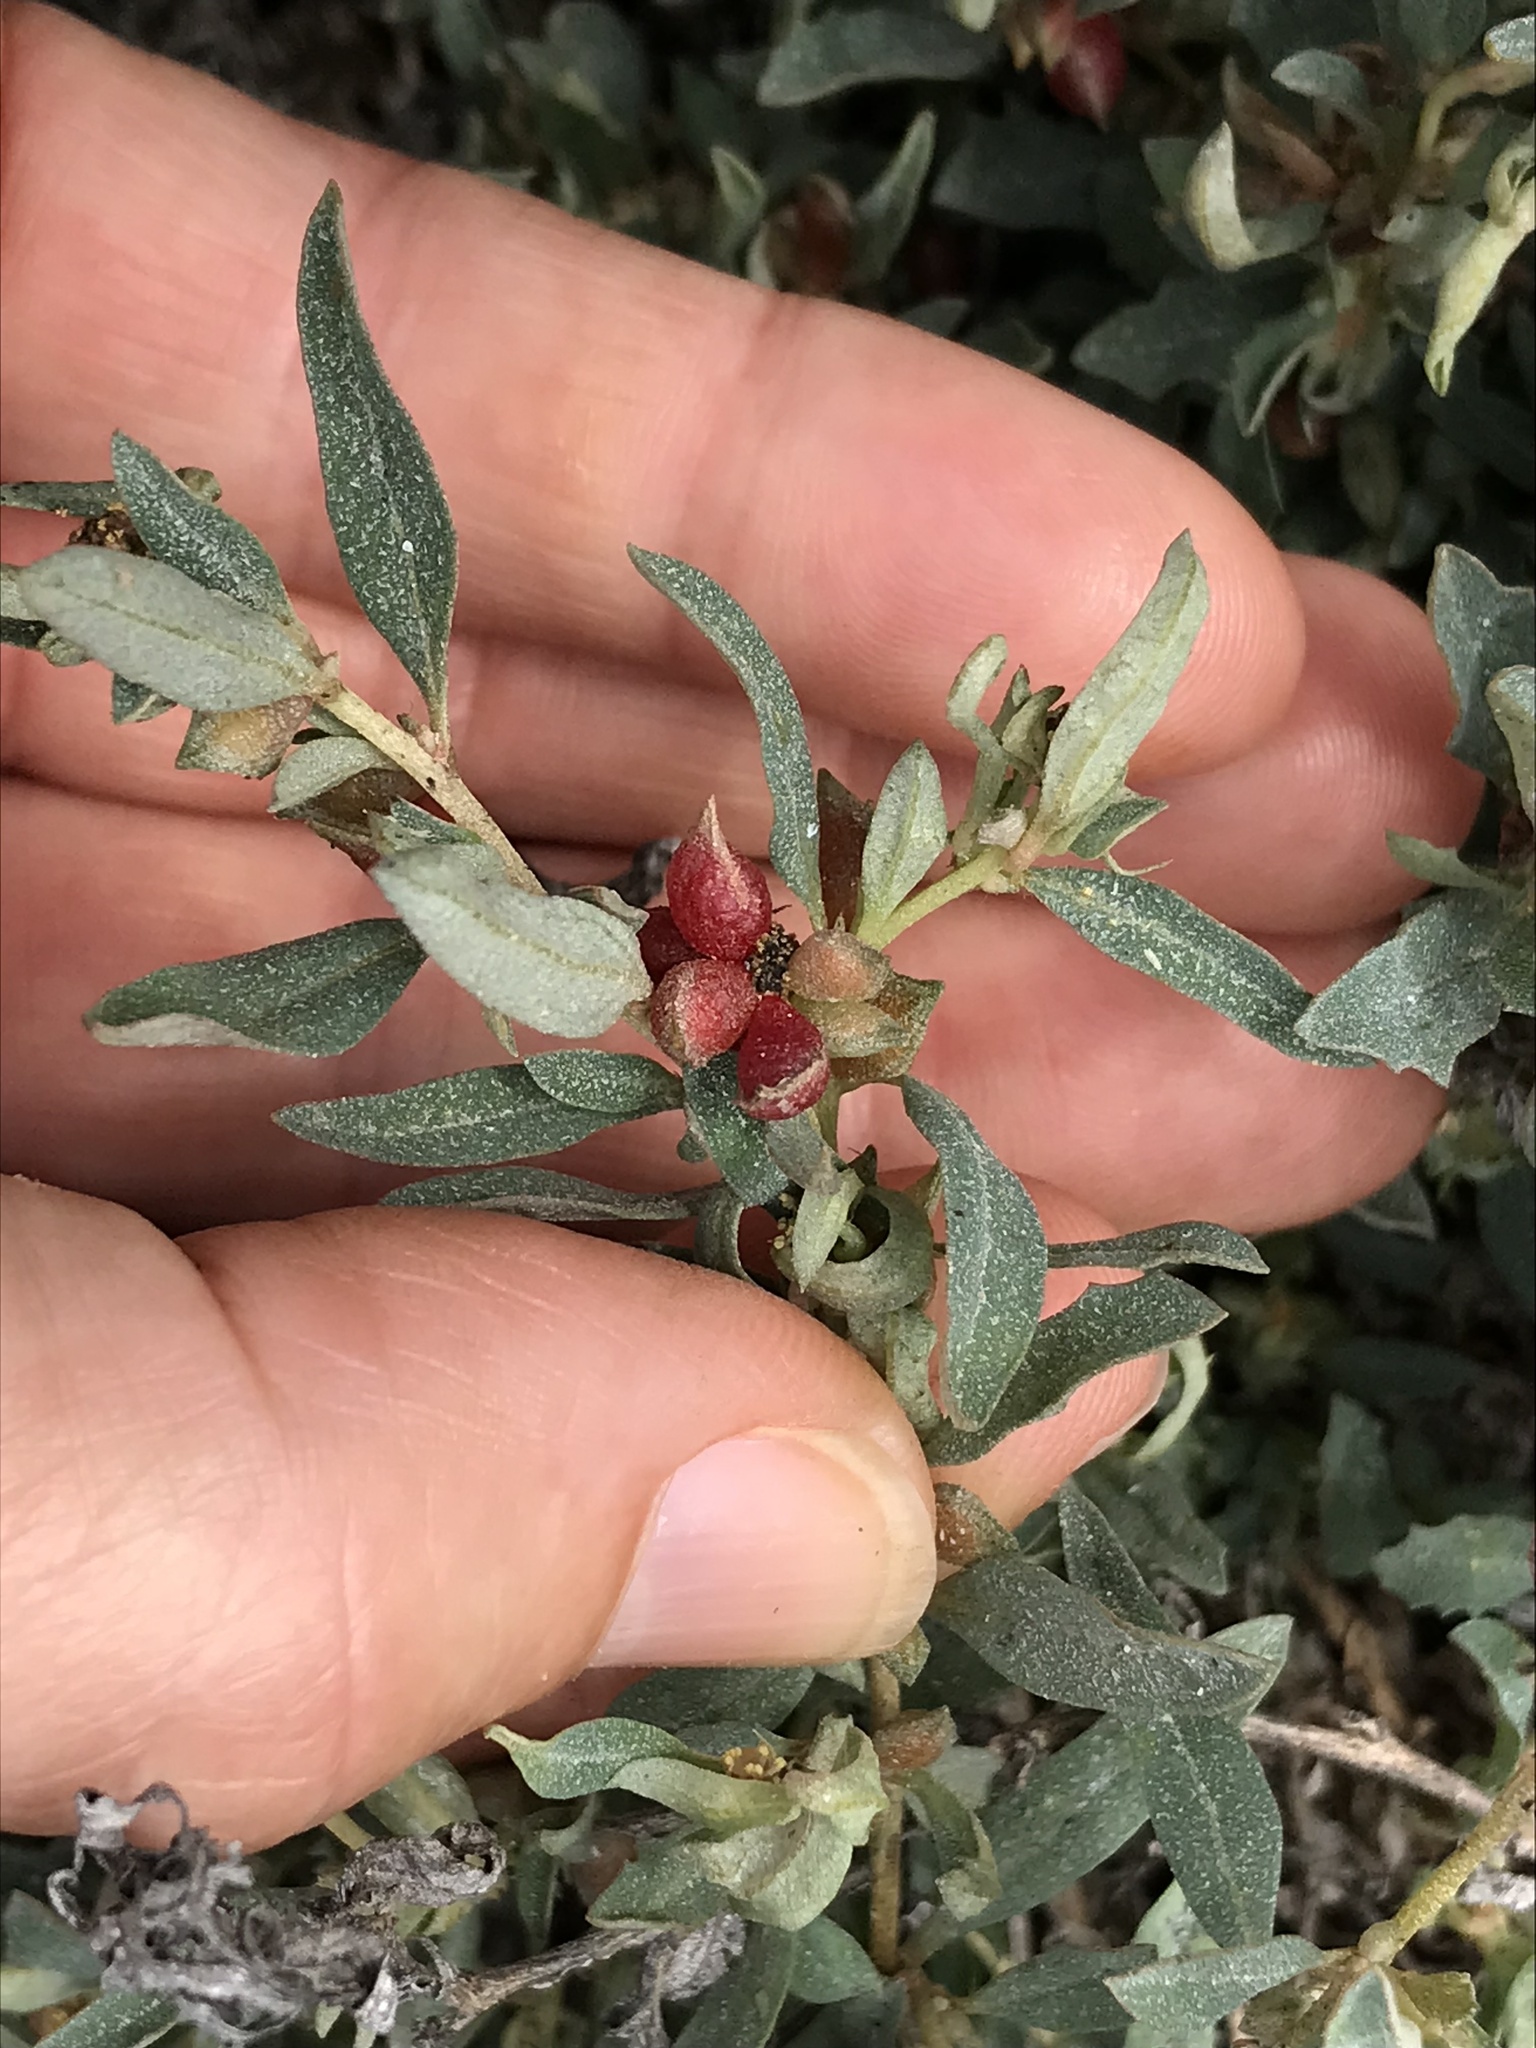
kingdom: Plantae
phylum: Tracheophyta
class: Magnoliopsida
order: Caryophyllales
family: Amaranthaceae
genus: Atriplex
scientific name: Atriplex semibaccata
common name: Australian saltbush
